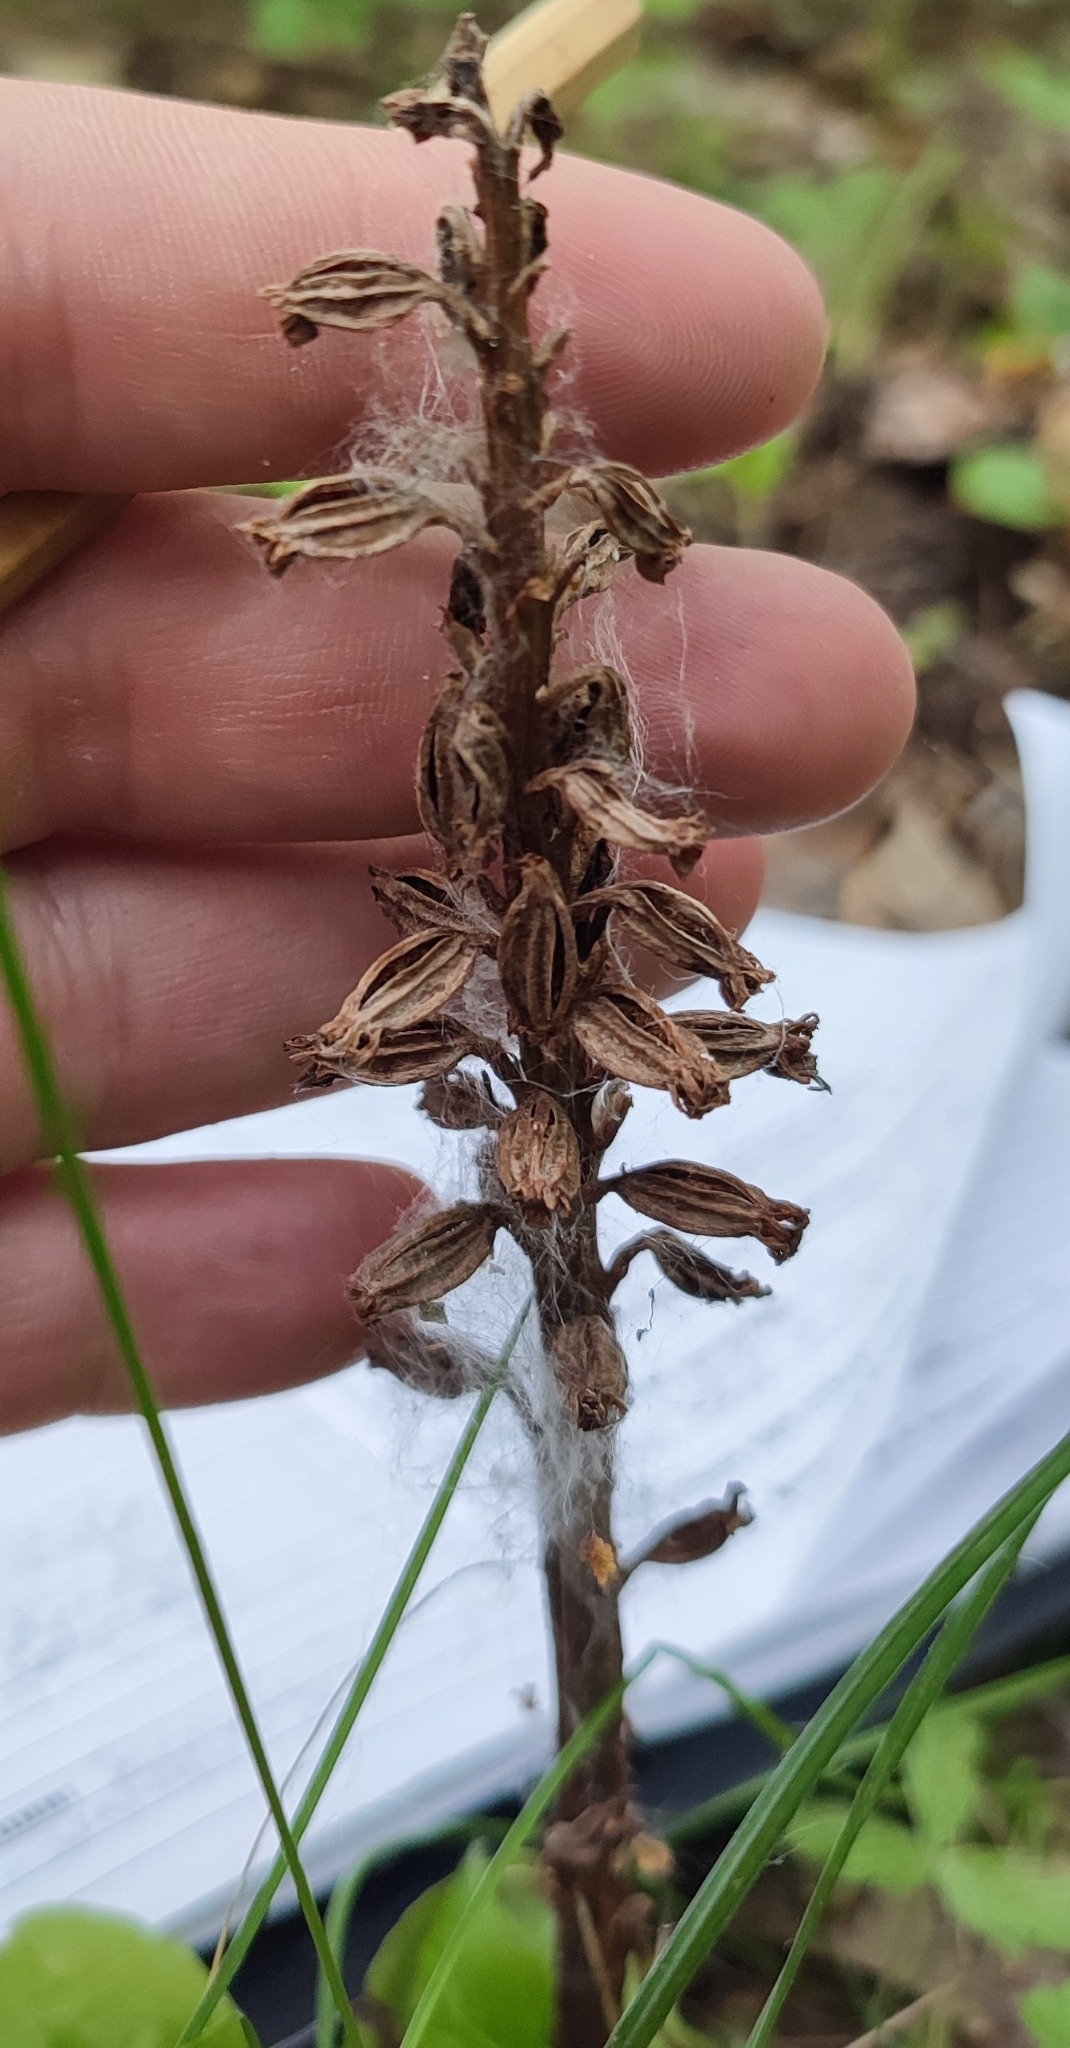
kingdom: Plantae
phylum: Tracheophyta
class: Liliopsida
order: Asparagales
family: Orchidaceae
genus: Neottia
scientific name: Neottia nidus-avis
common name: Bird's-nest orchid
